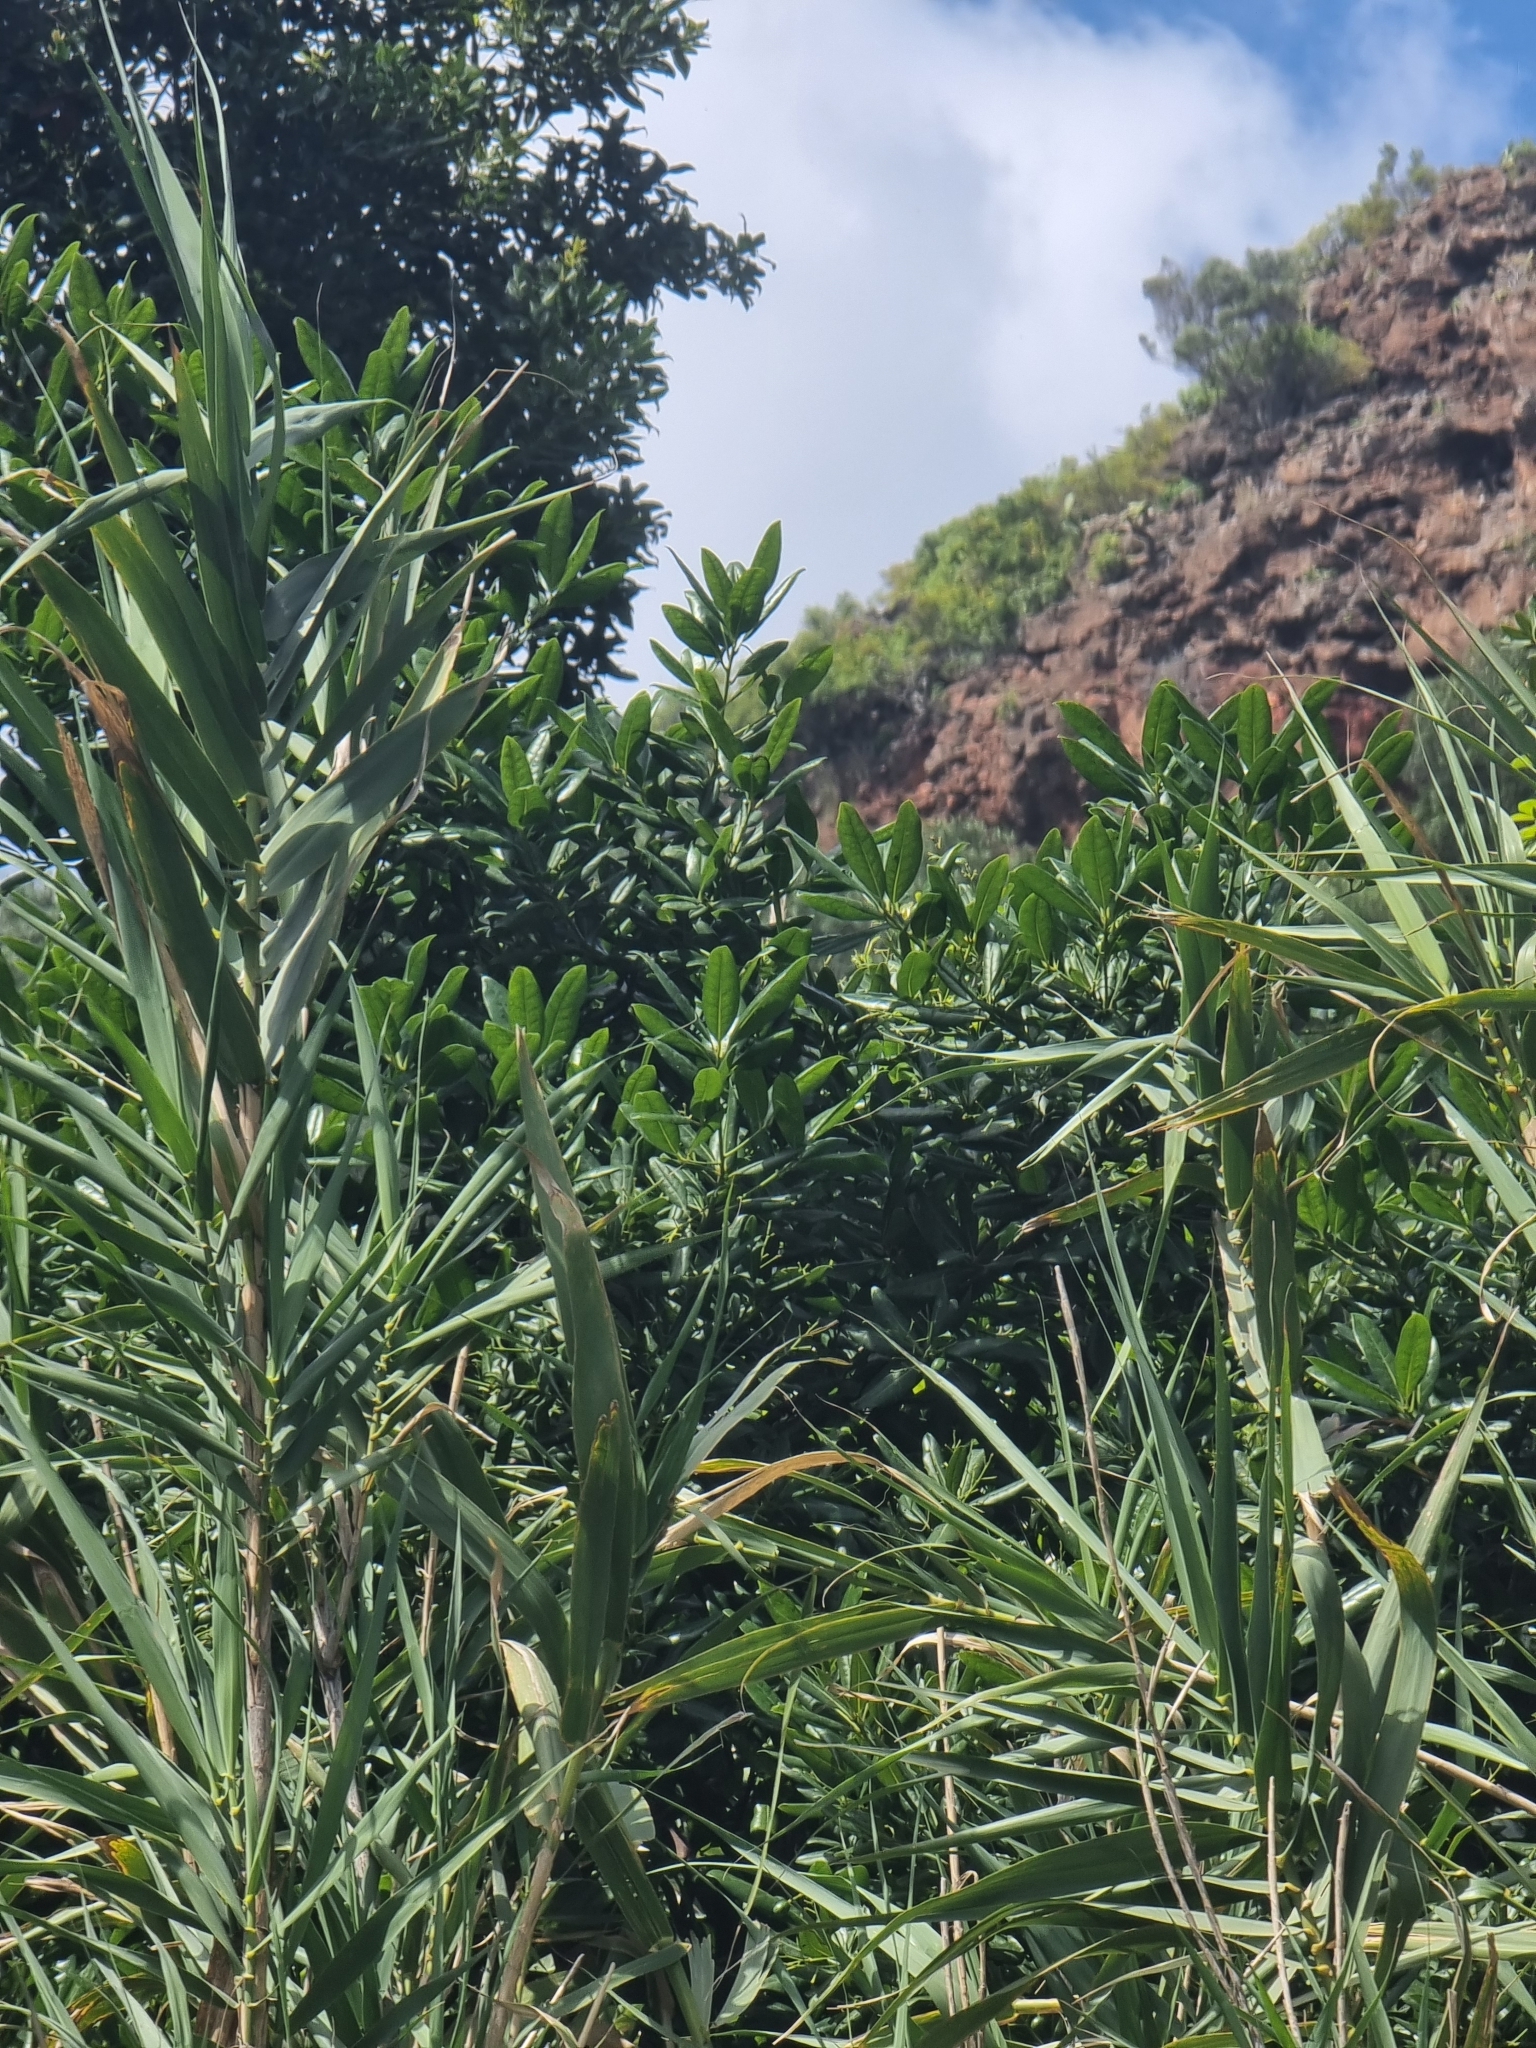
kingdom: Plantae
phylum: Tracheophyta
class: Magnoliopsida
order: Laurales
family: Lauraceae
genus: Apollonias
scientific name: Apollonias barbujana
